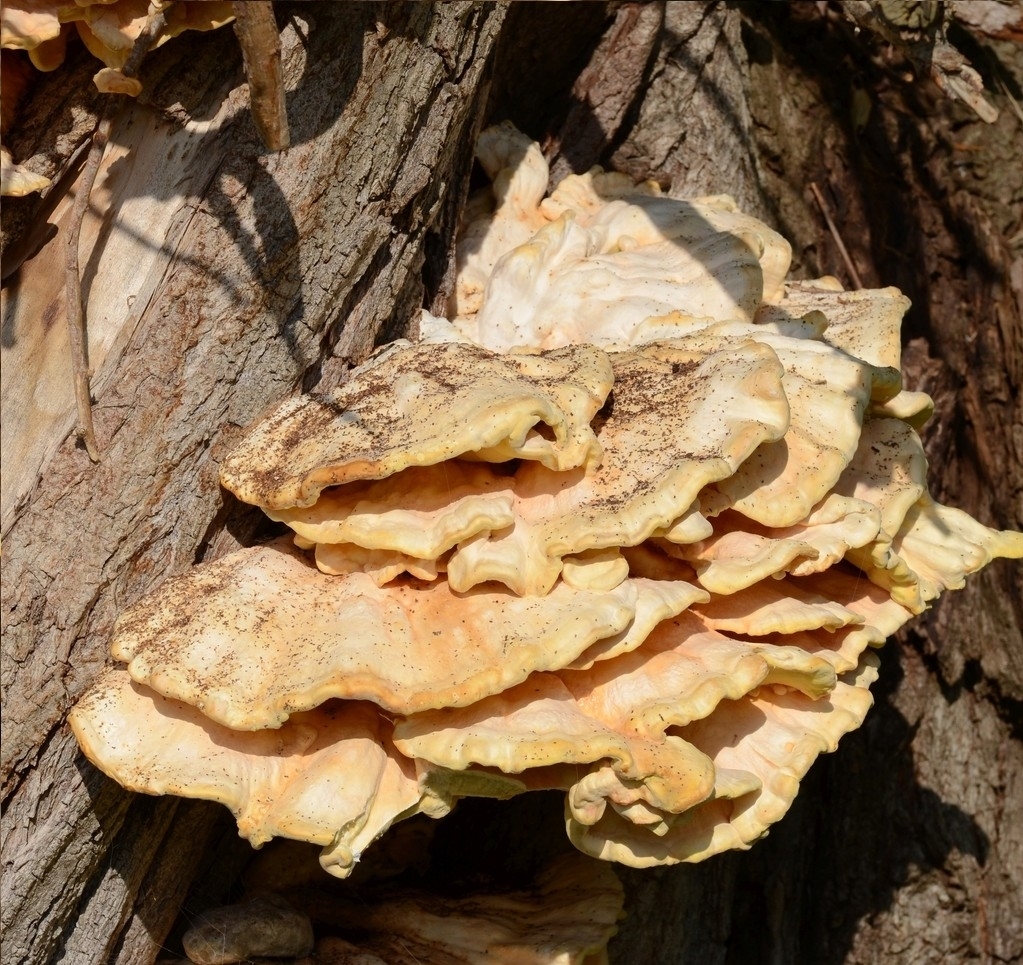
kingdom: Fungi
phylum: Basidiomycota
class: Agaricomycetes
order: Polyporales
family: Laetiporaceae
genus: Laetiporus
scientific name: Laetiporus sulphureus
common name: Chicken of the woods
